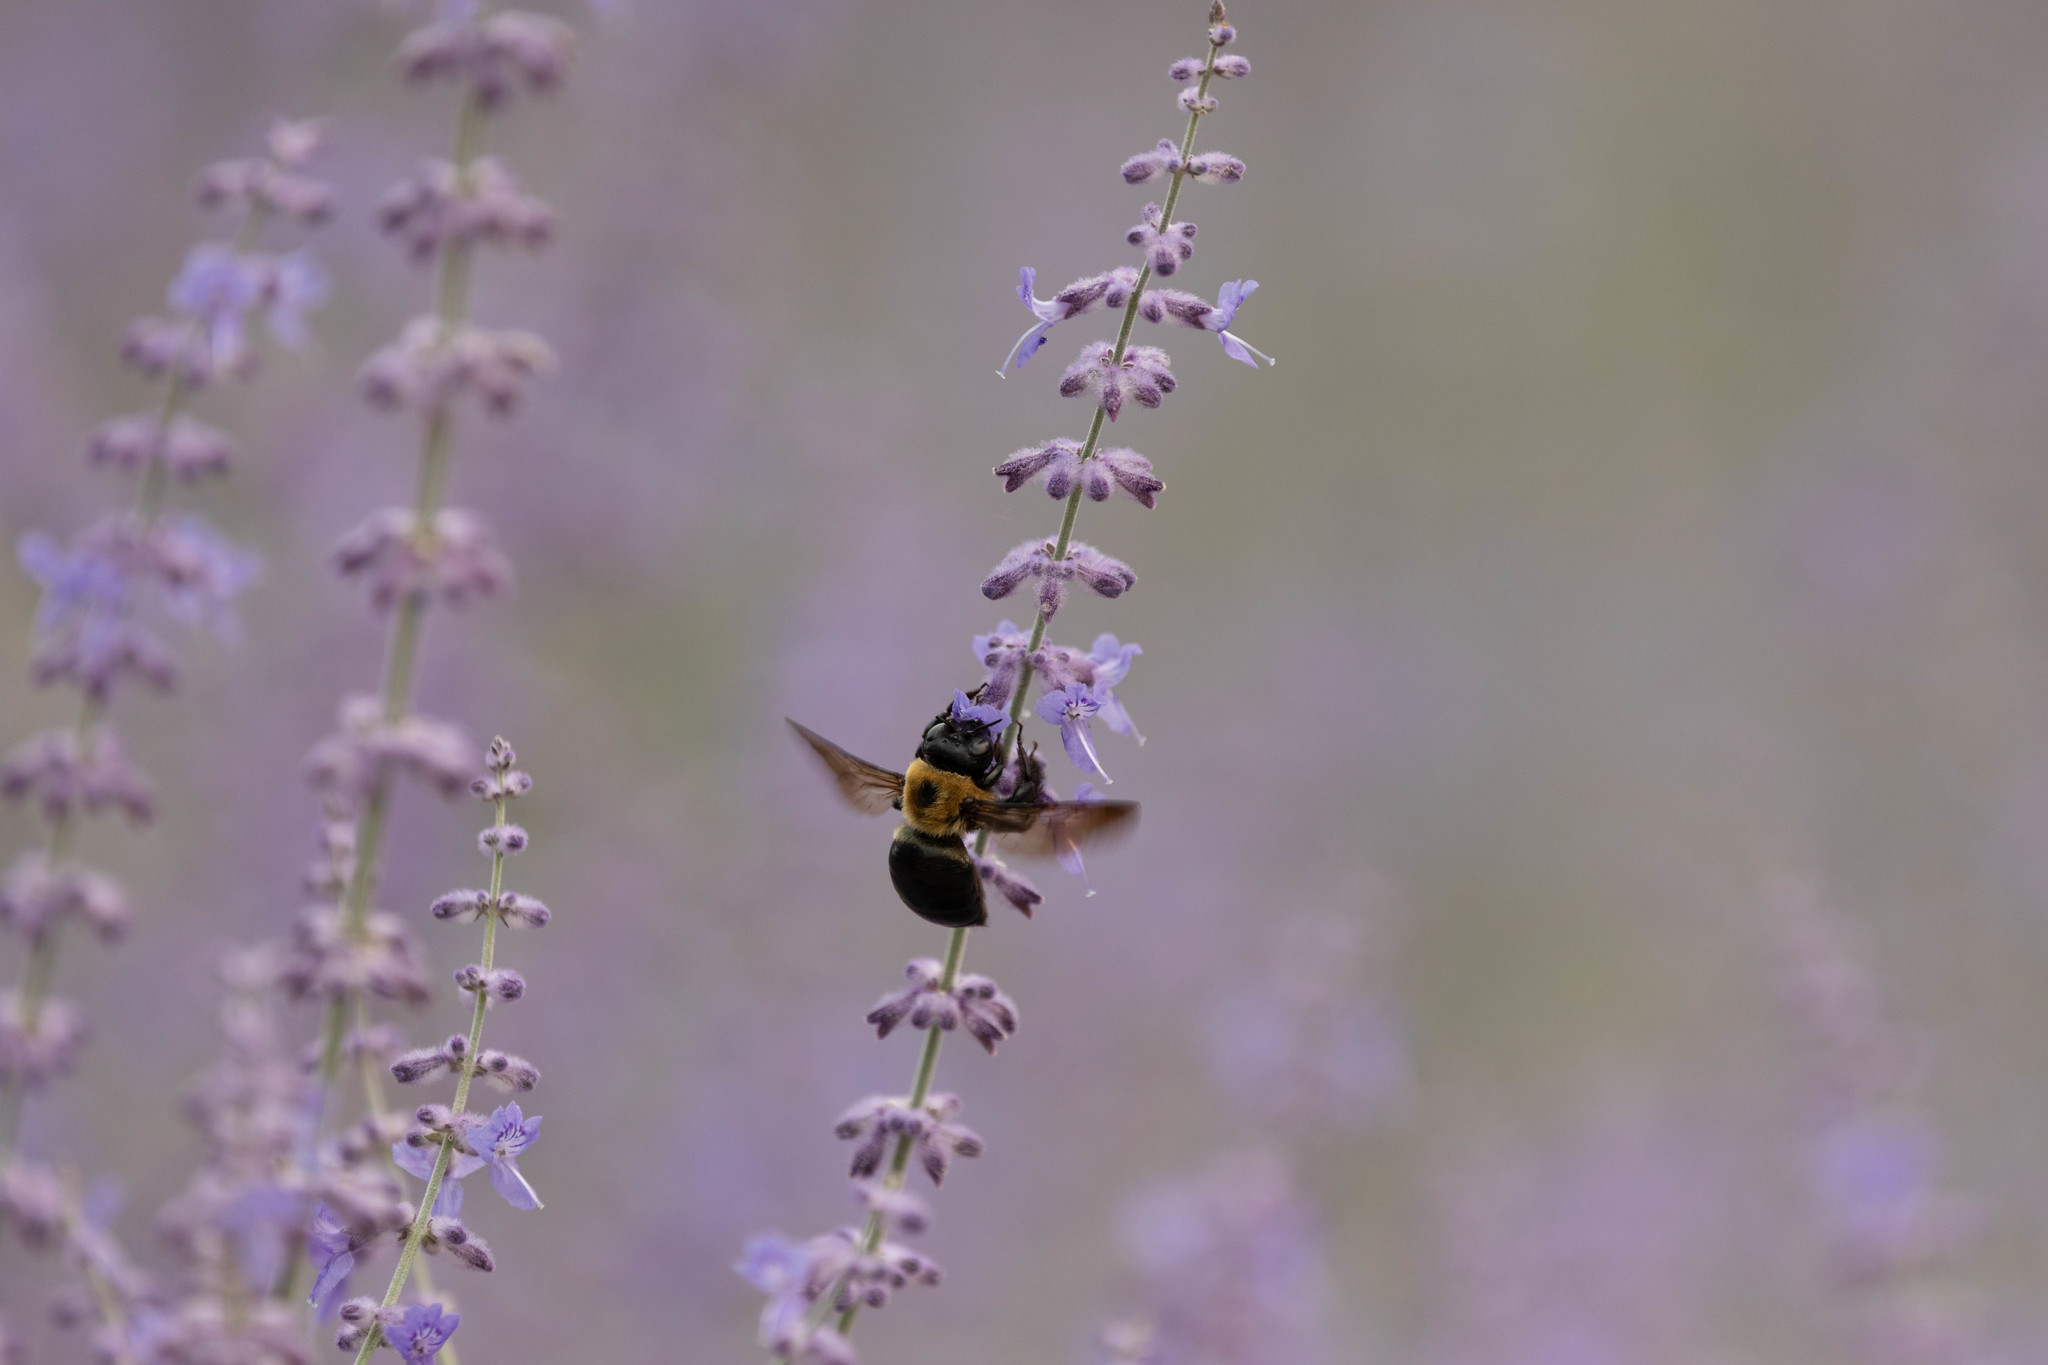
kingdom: Animalia
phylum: Arthropoda
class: Insecta
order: Hymenoptera
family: Apidae
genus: Xylocopa
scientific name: Xylocopa virginica
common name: Carpenter bee
